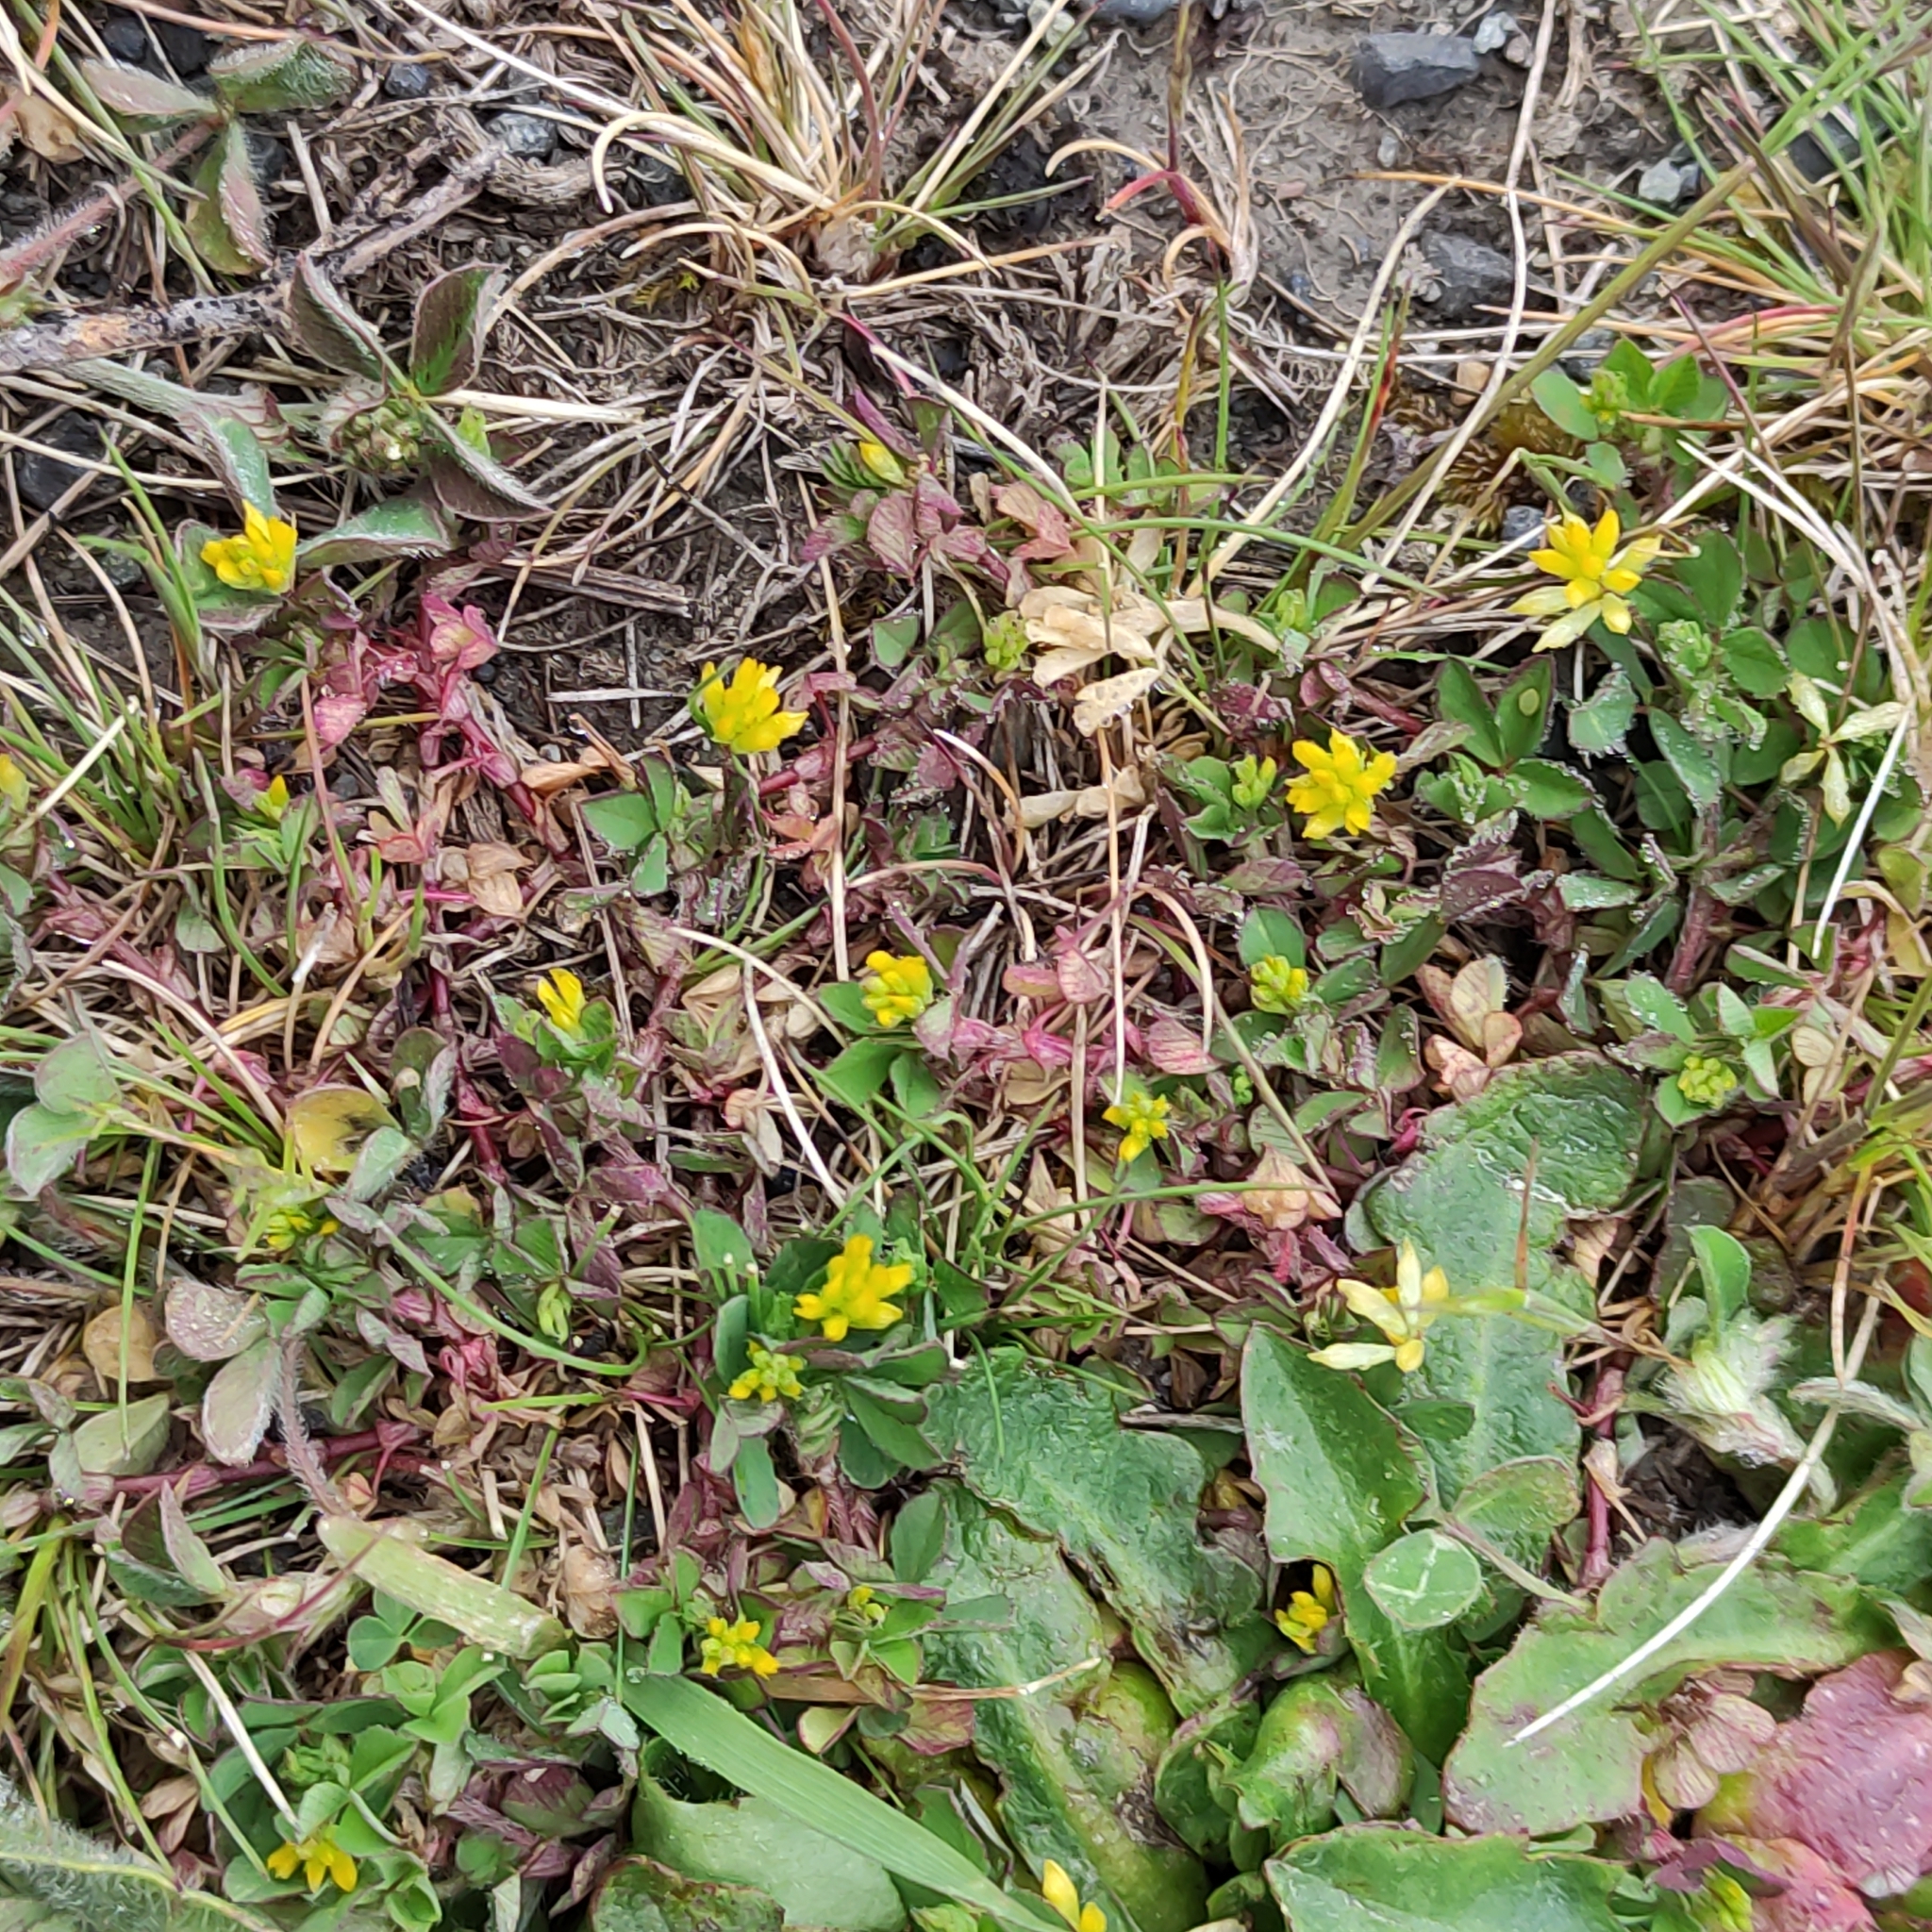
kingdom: Plantae
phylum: Tracheophyta
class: Magnoliopsida
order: Fabales
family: Fabaceae
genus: Trifolium
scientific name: Trifolium dubium
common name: Suckling clover
